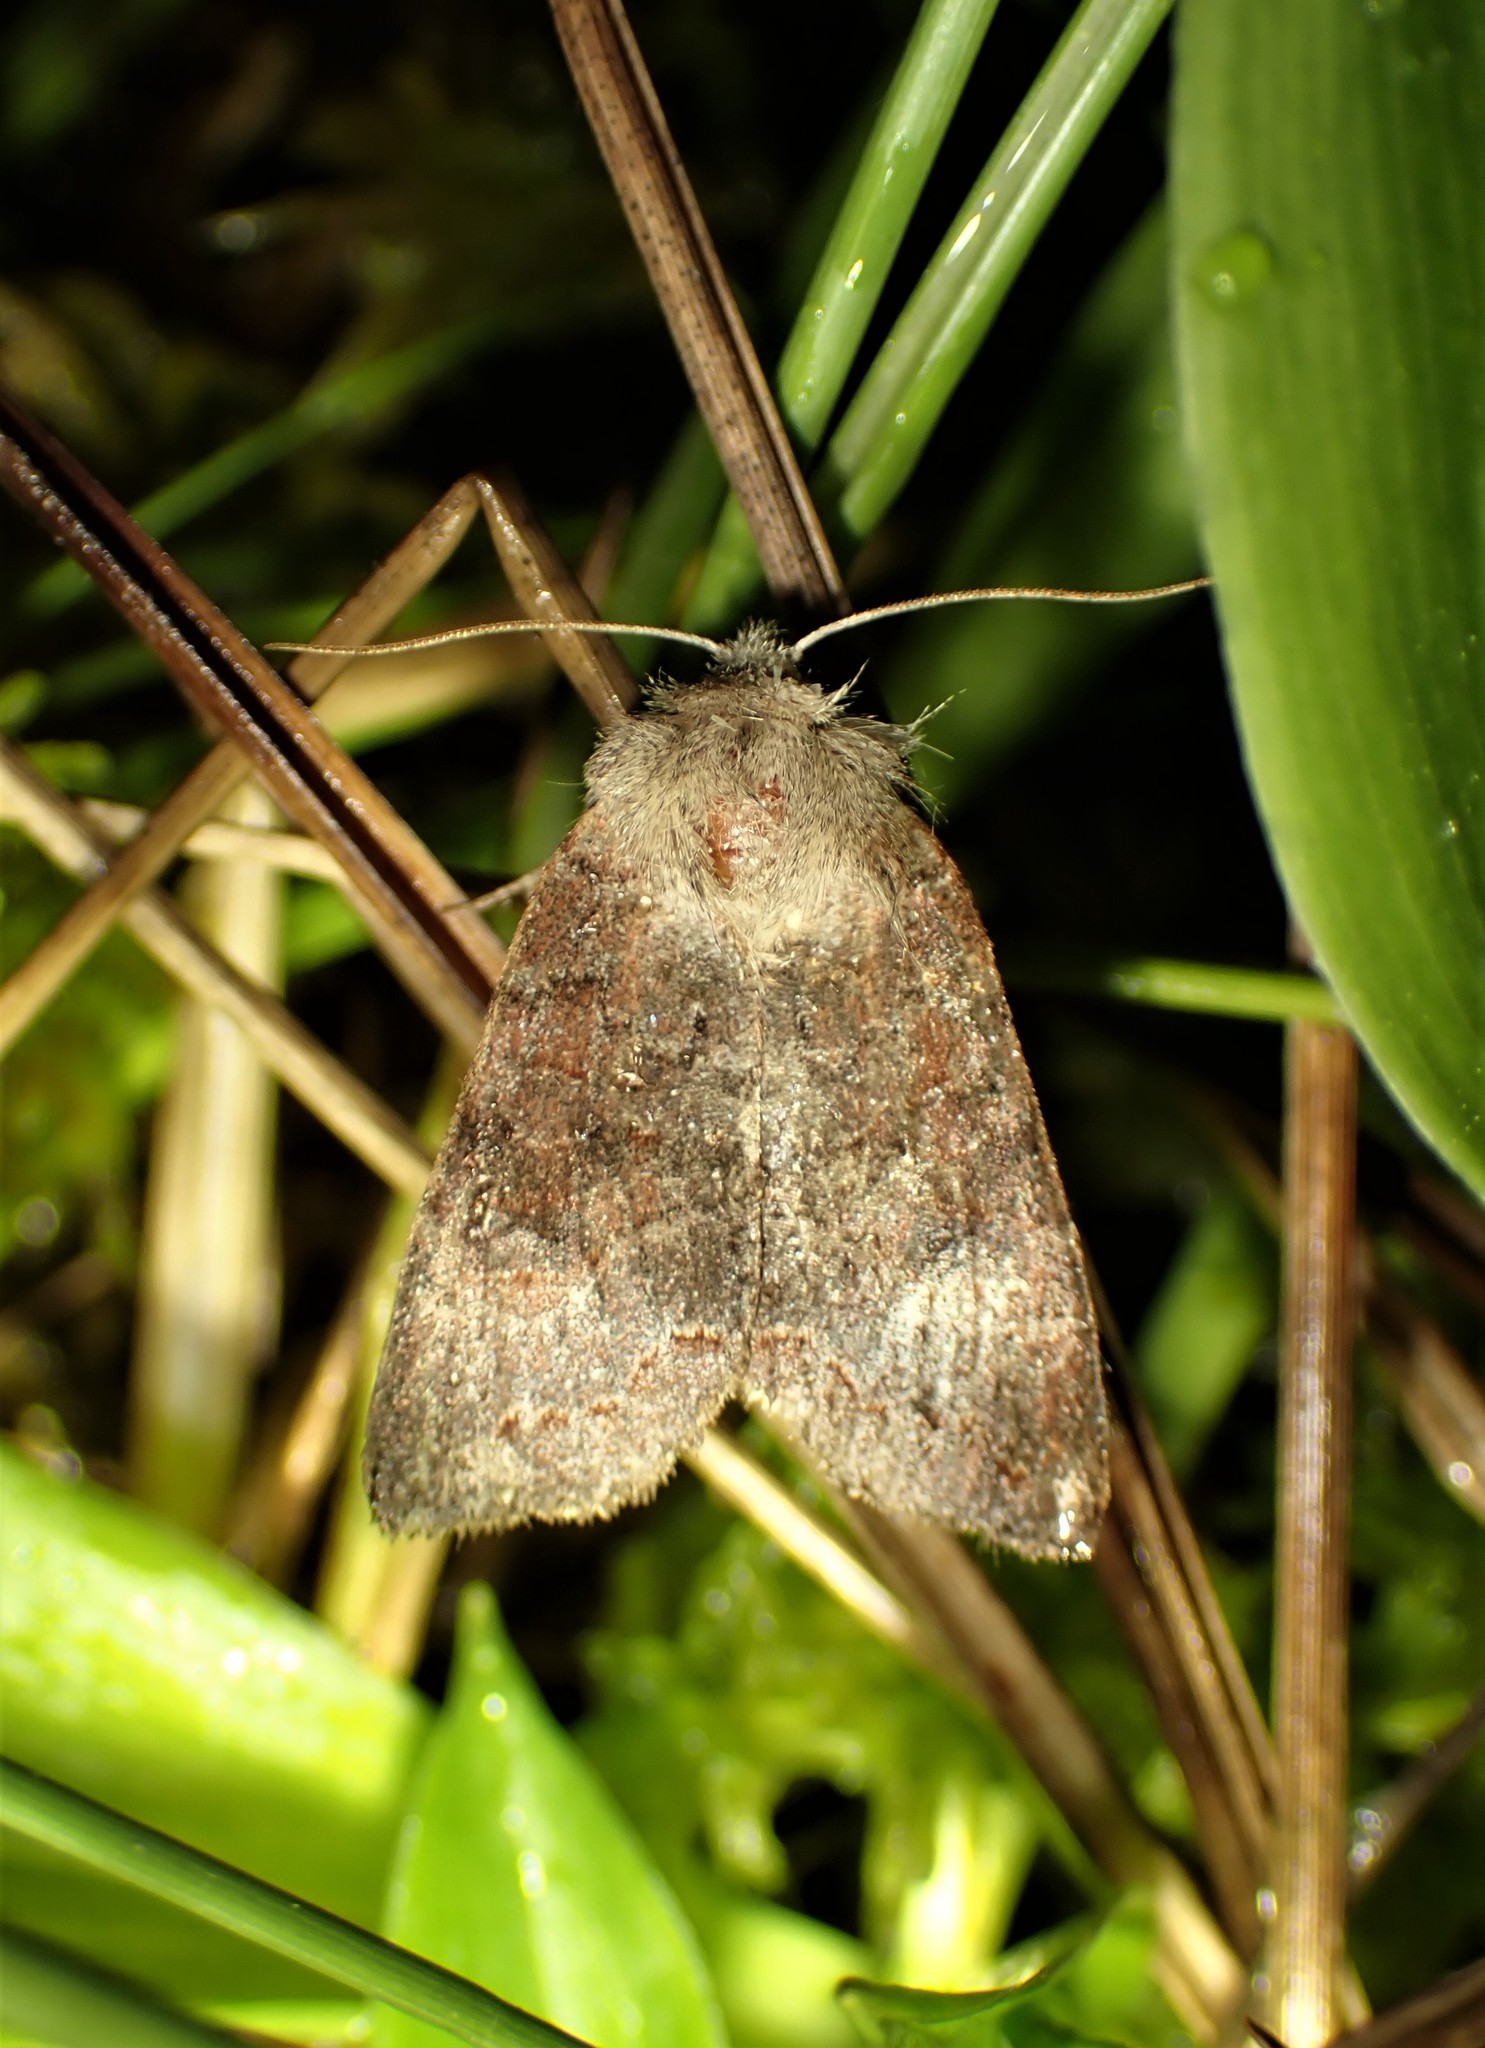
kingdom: Animalia
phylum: Arthropoda
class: Insecta
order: Lepidoptera
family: Noctuidae
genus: Orthosia
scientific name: Orthosia revicta
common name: Rusty whitesided caterpillar
